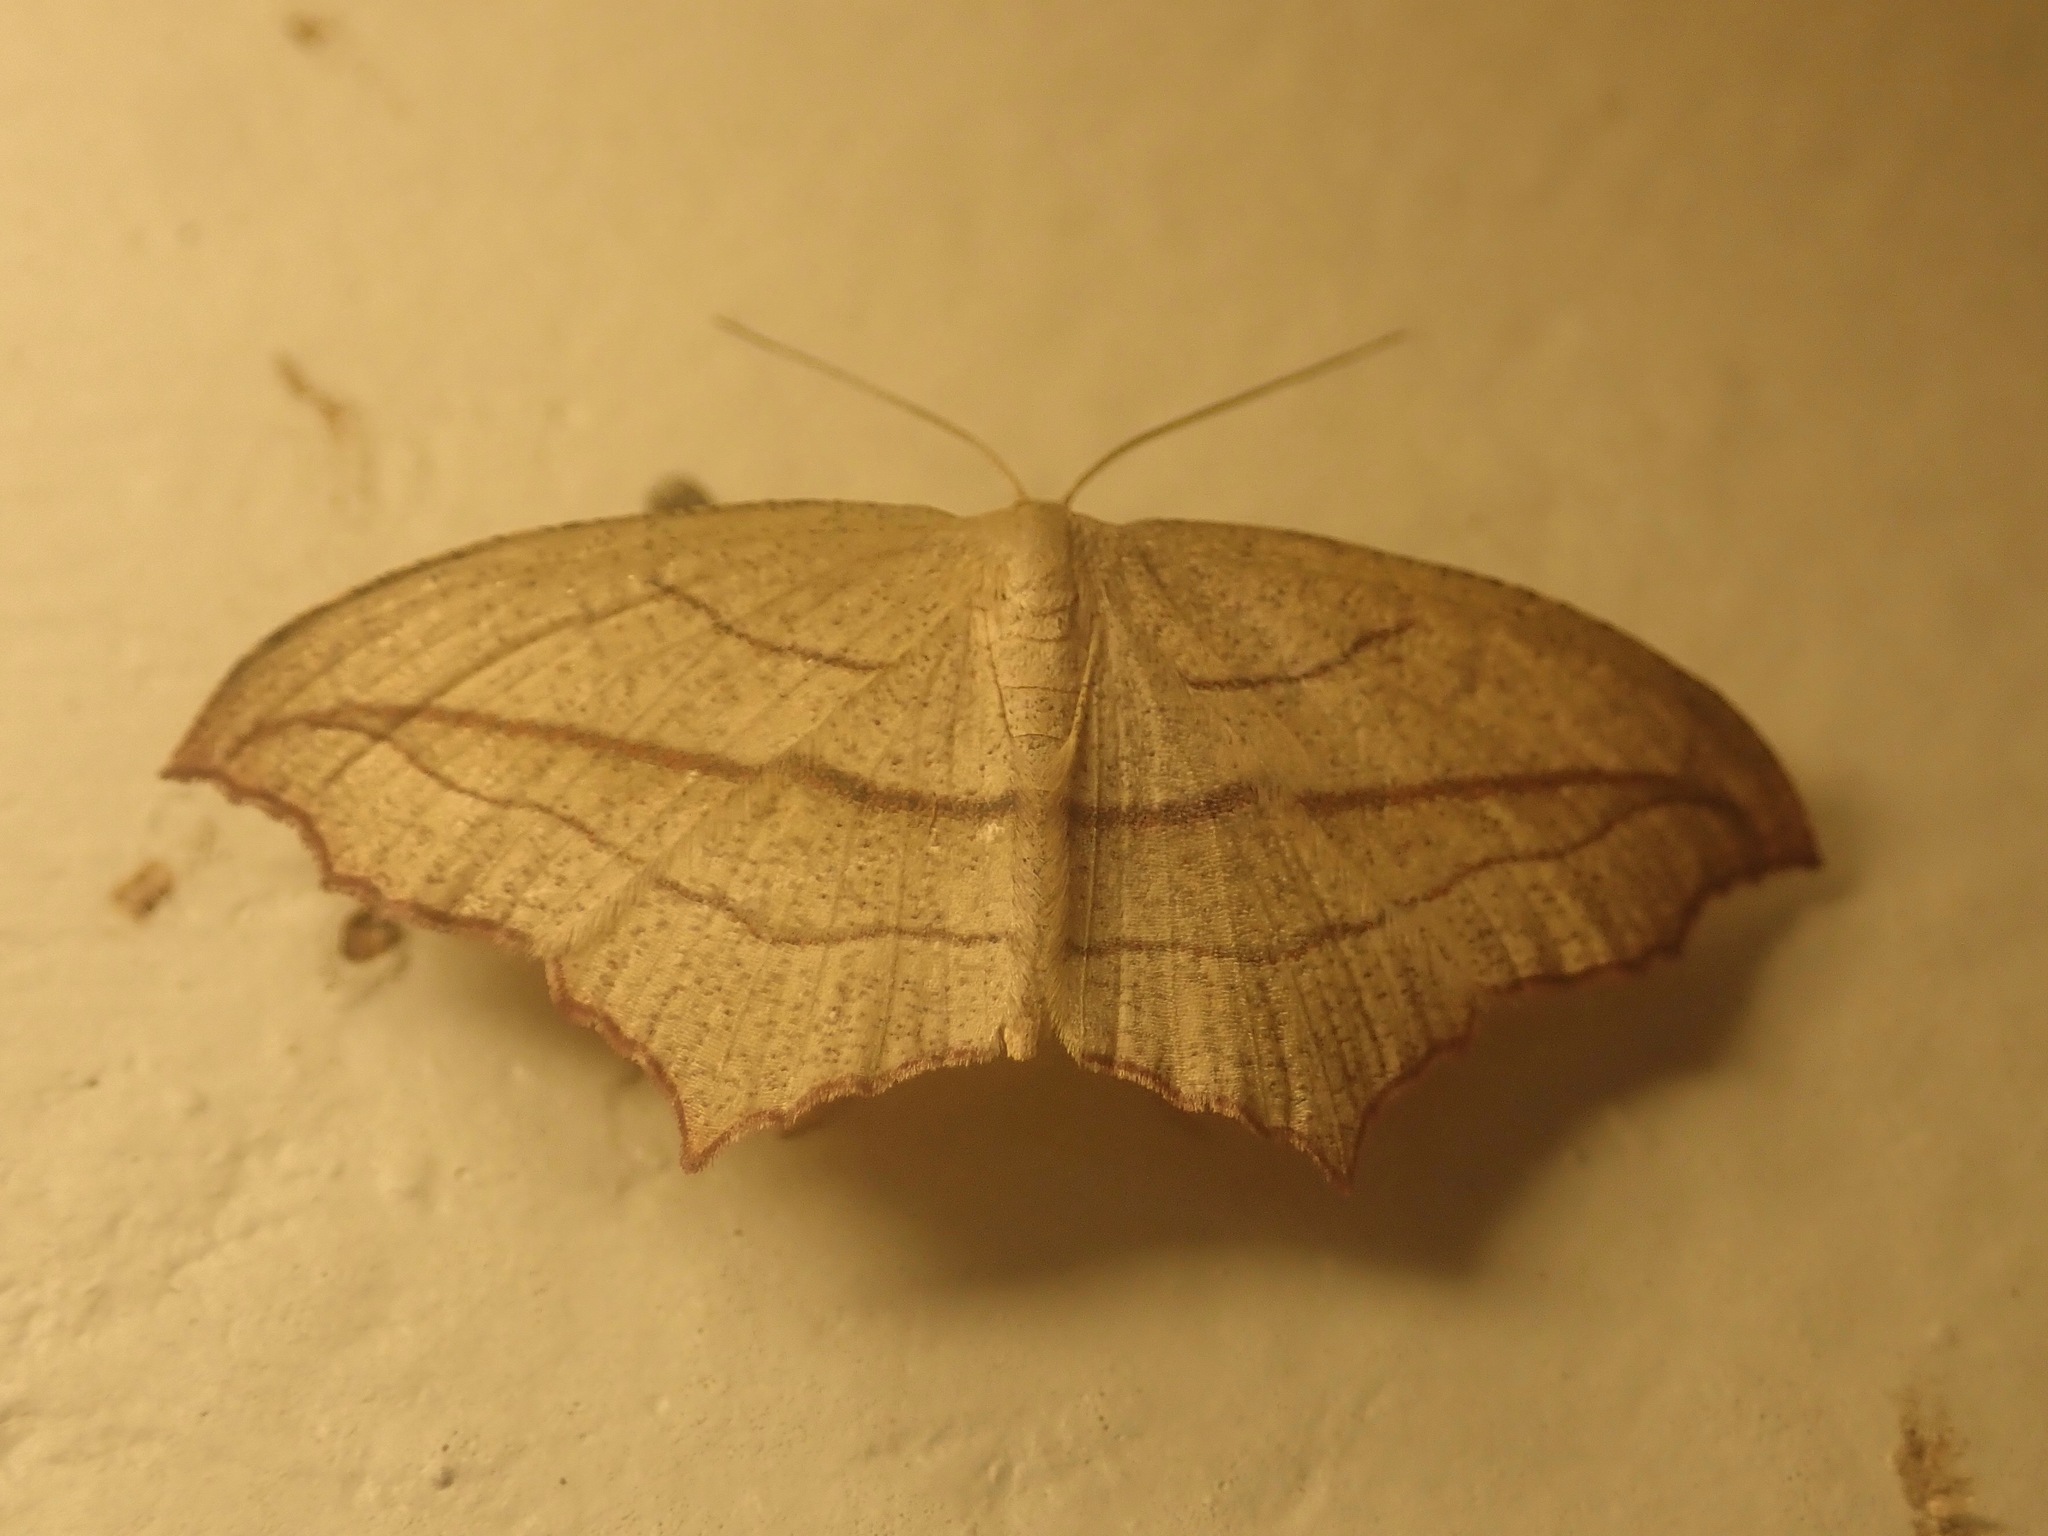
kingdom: Animalia
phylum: Arthropoda
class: Insecta
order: Lepidoptera
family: Geometridae
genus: Timandra
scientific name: Timandra amaturaria
